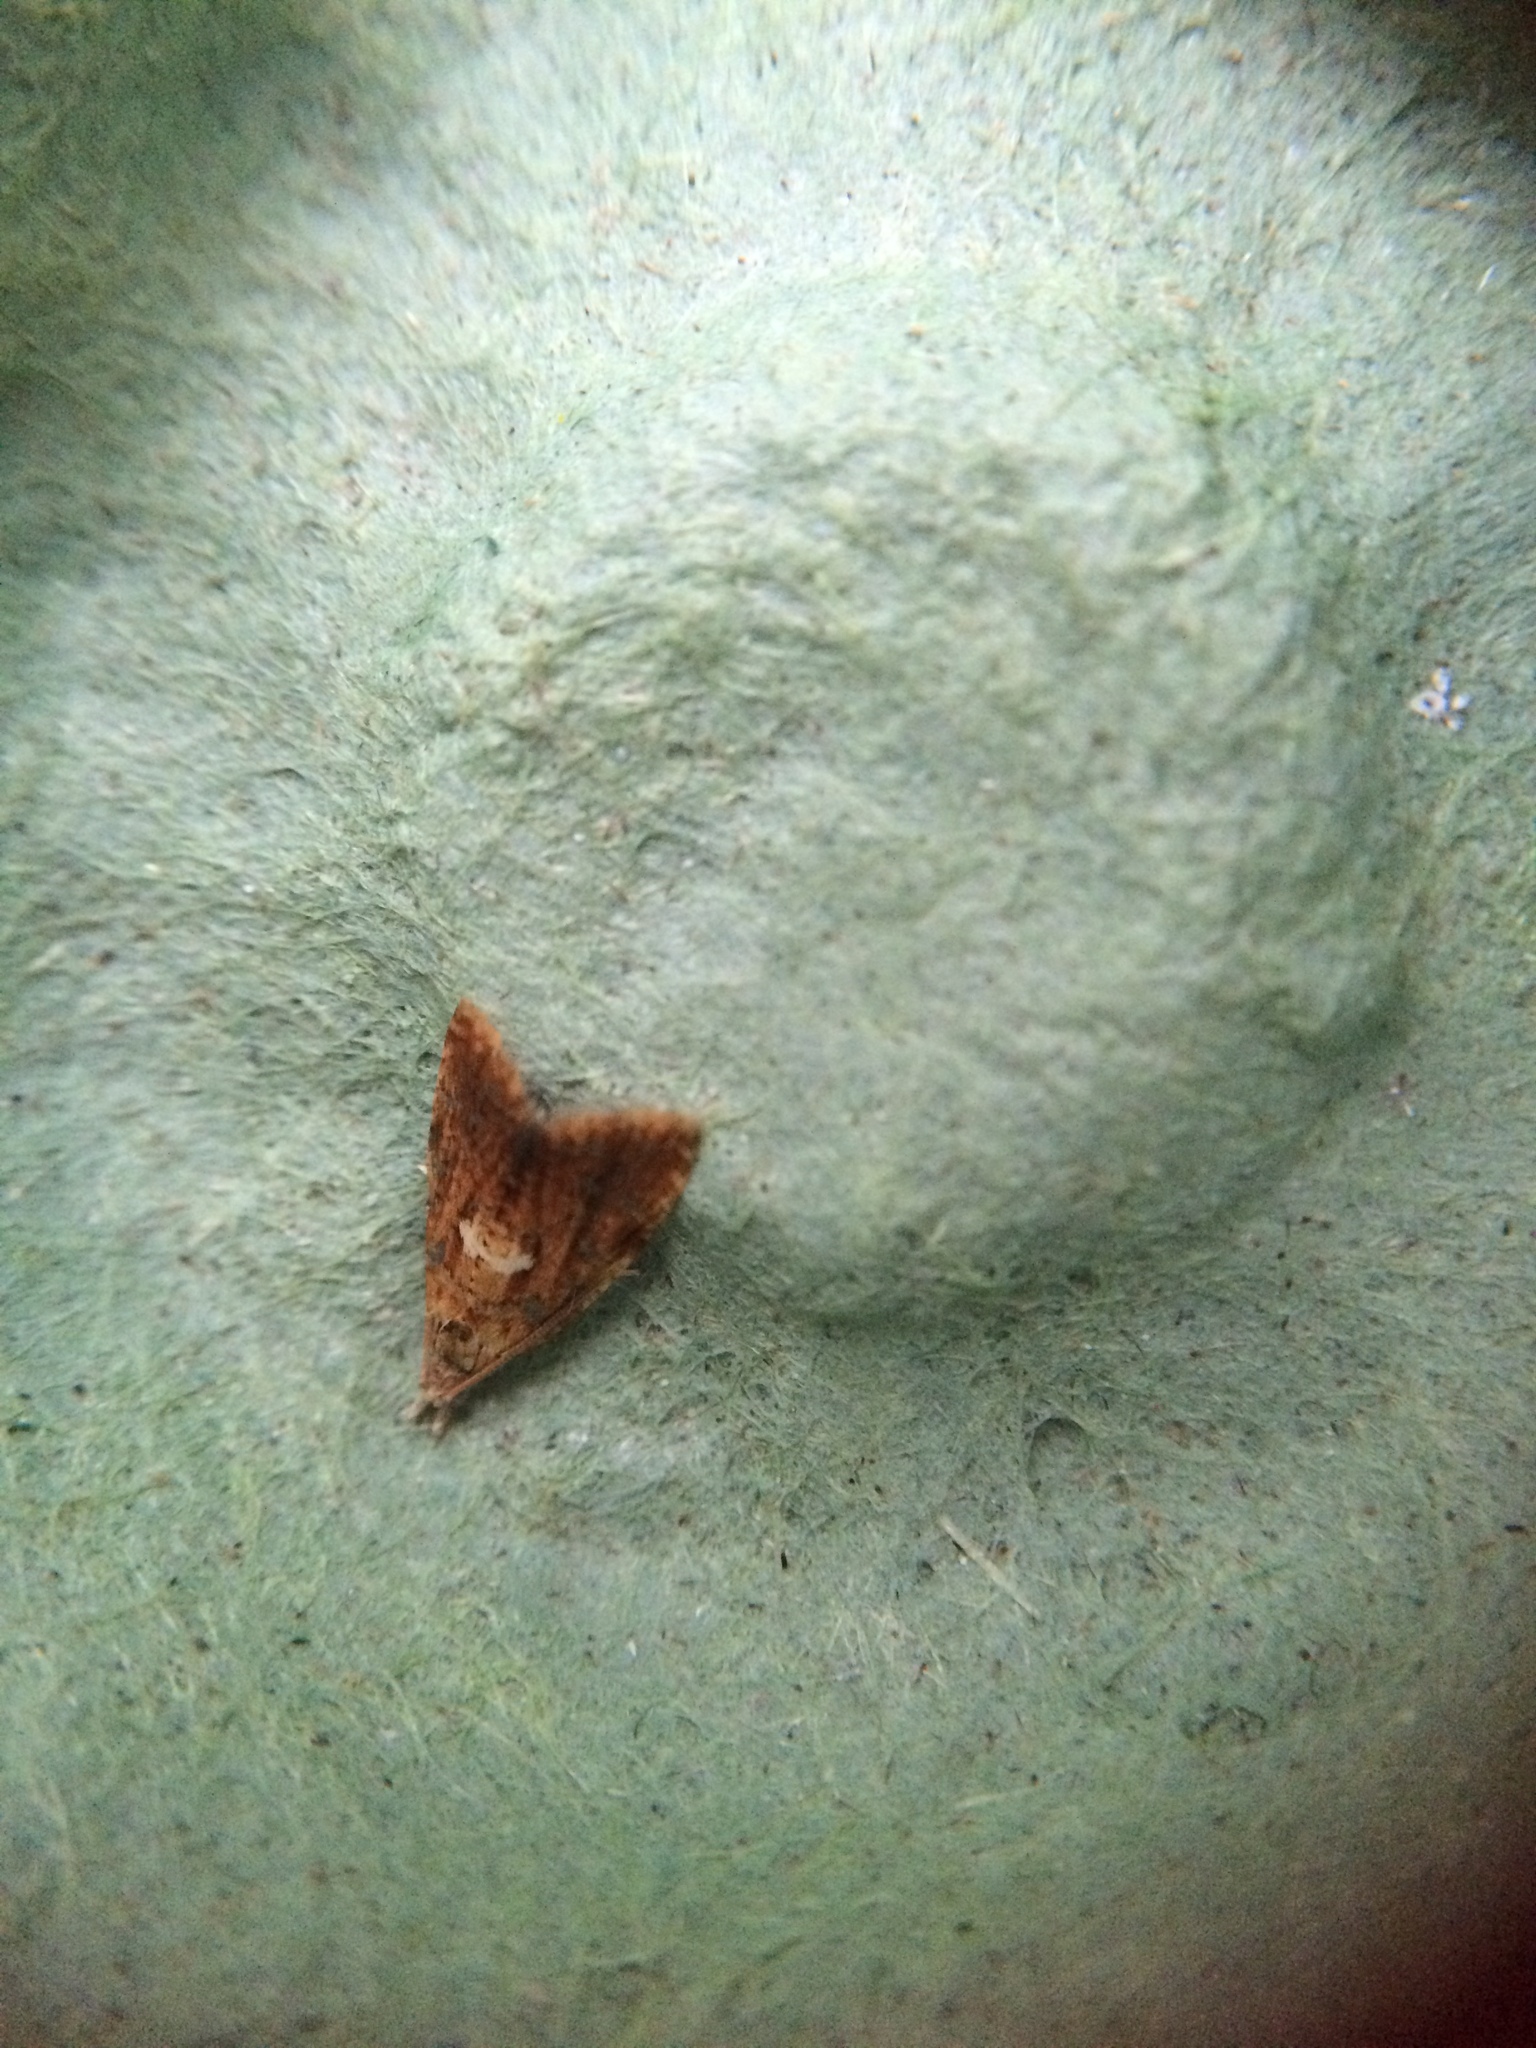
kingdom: Animalia
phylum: Arthropoda
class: Insecta
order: Lepidoptera
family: Tortricidae
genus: Pseudargyrotoza
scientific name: Pseudargyrotoza conwagana
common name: Yellow-spot twist
